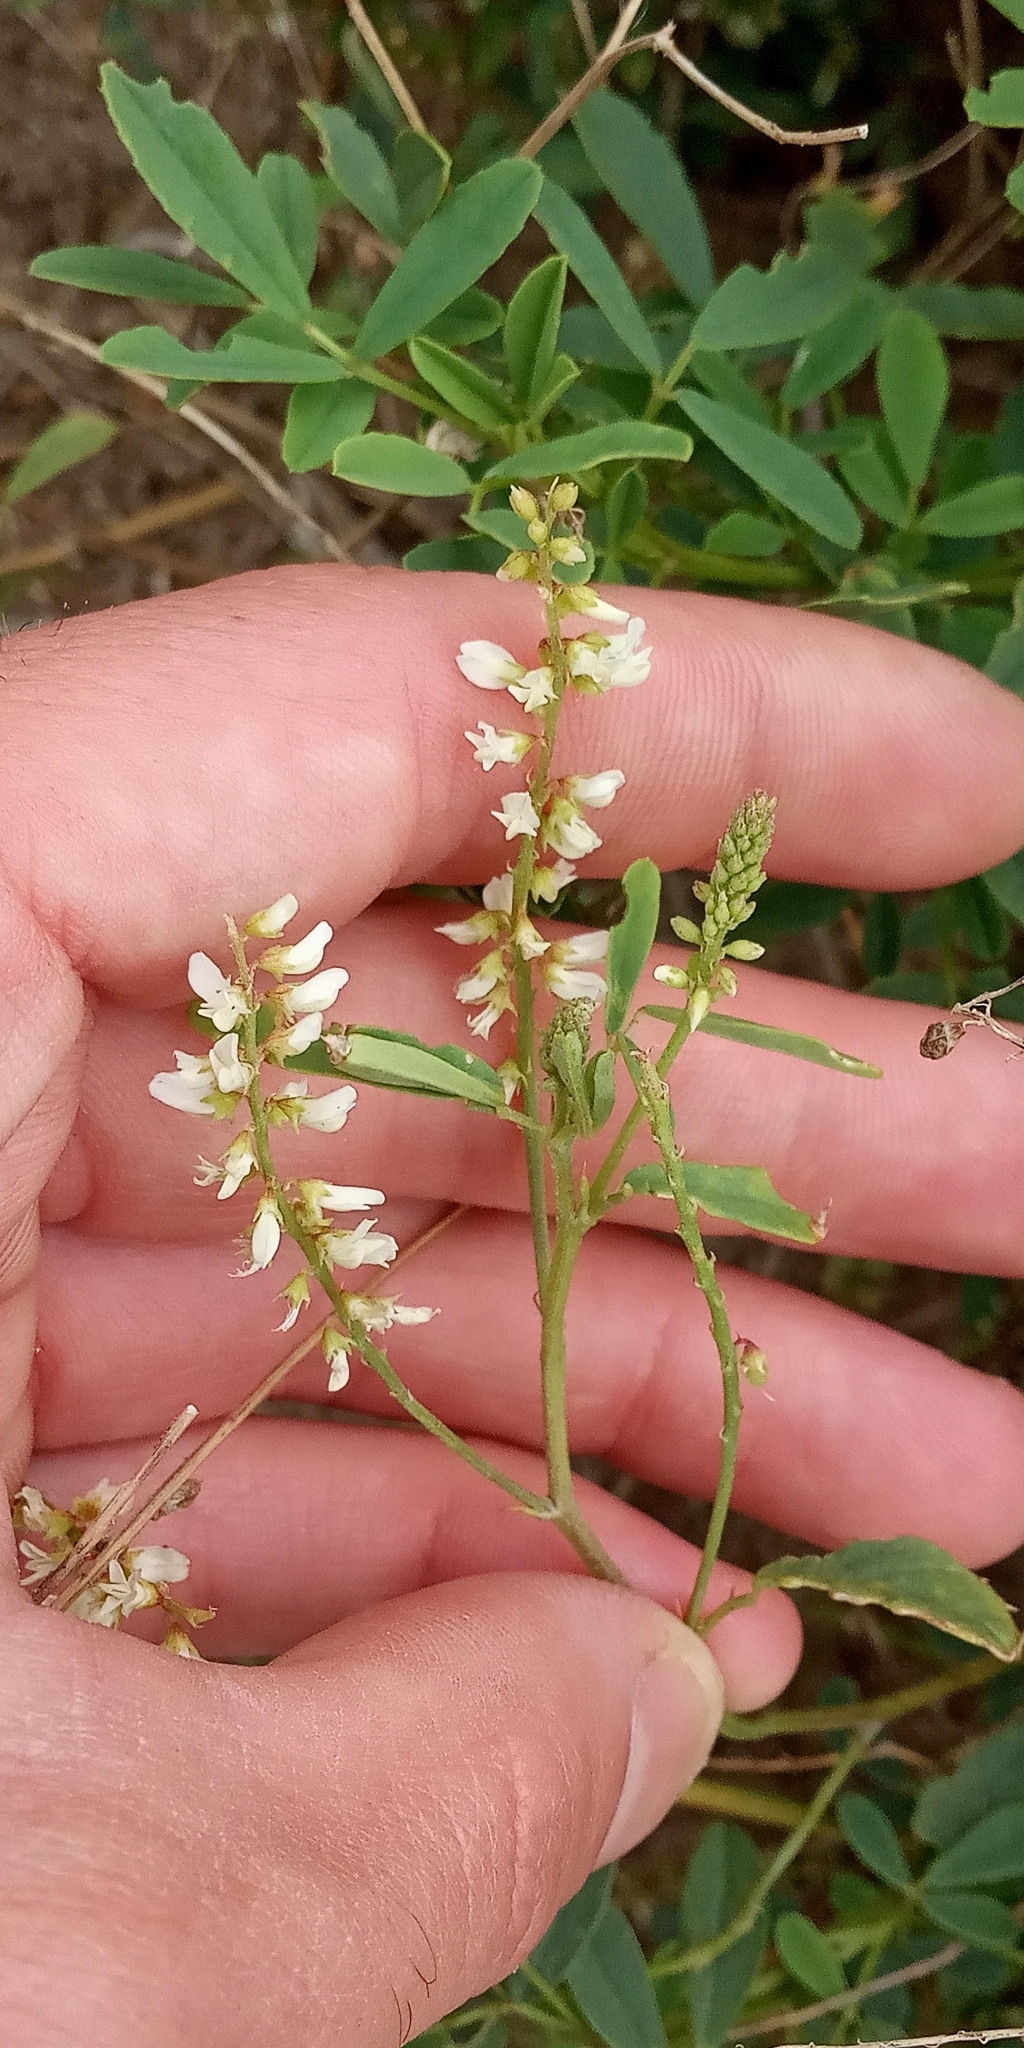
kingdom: Plantae
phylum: Tracheophyta
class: Magnoliopsida
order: Fabales
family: Fabaceae
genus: Melilotus
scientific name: Melilotus albus
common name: White melilot
